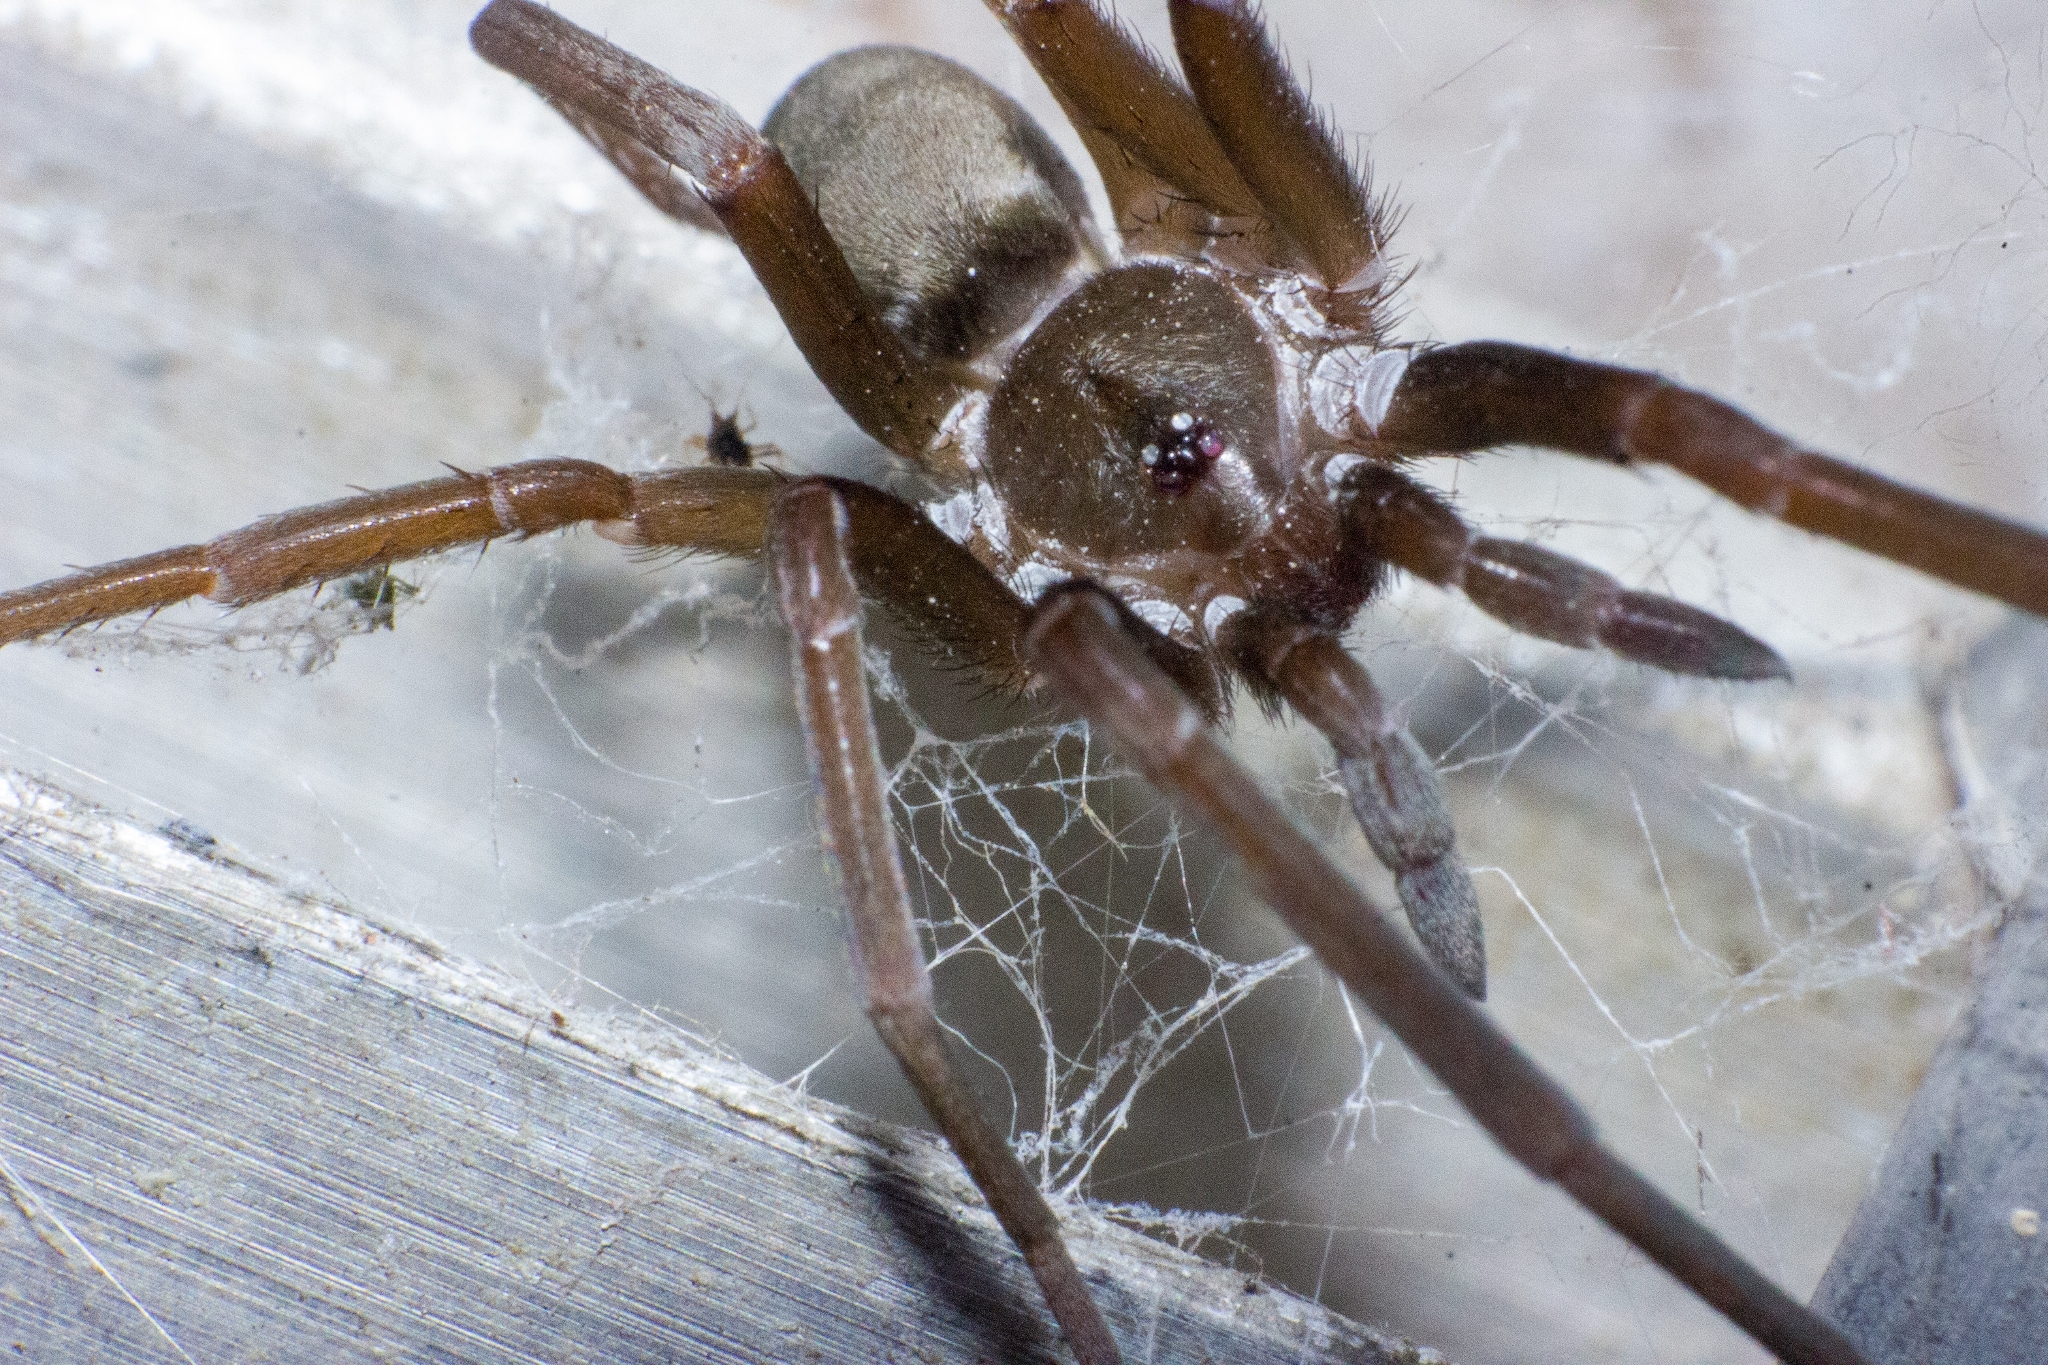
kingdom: Animalia
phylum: Arthropoda
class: Arachnida
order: Araneae
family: Filistatidae
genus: Kukulcania
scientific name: Kukulcania hibernalis
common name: Crevice weaver
